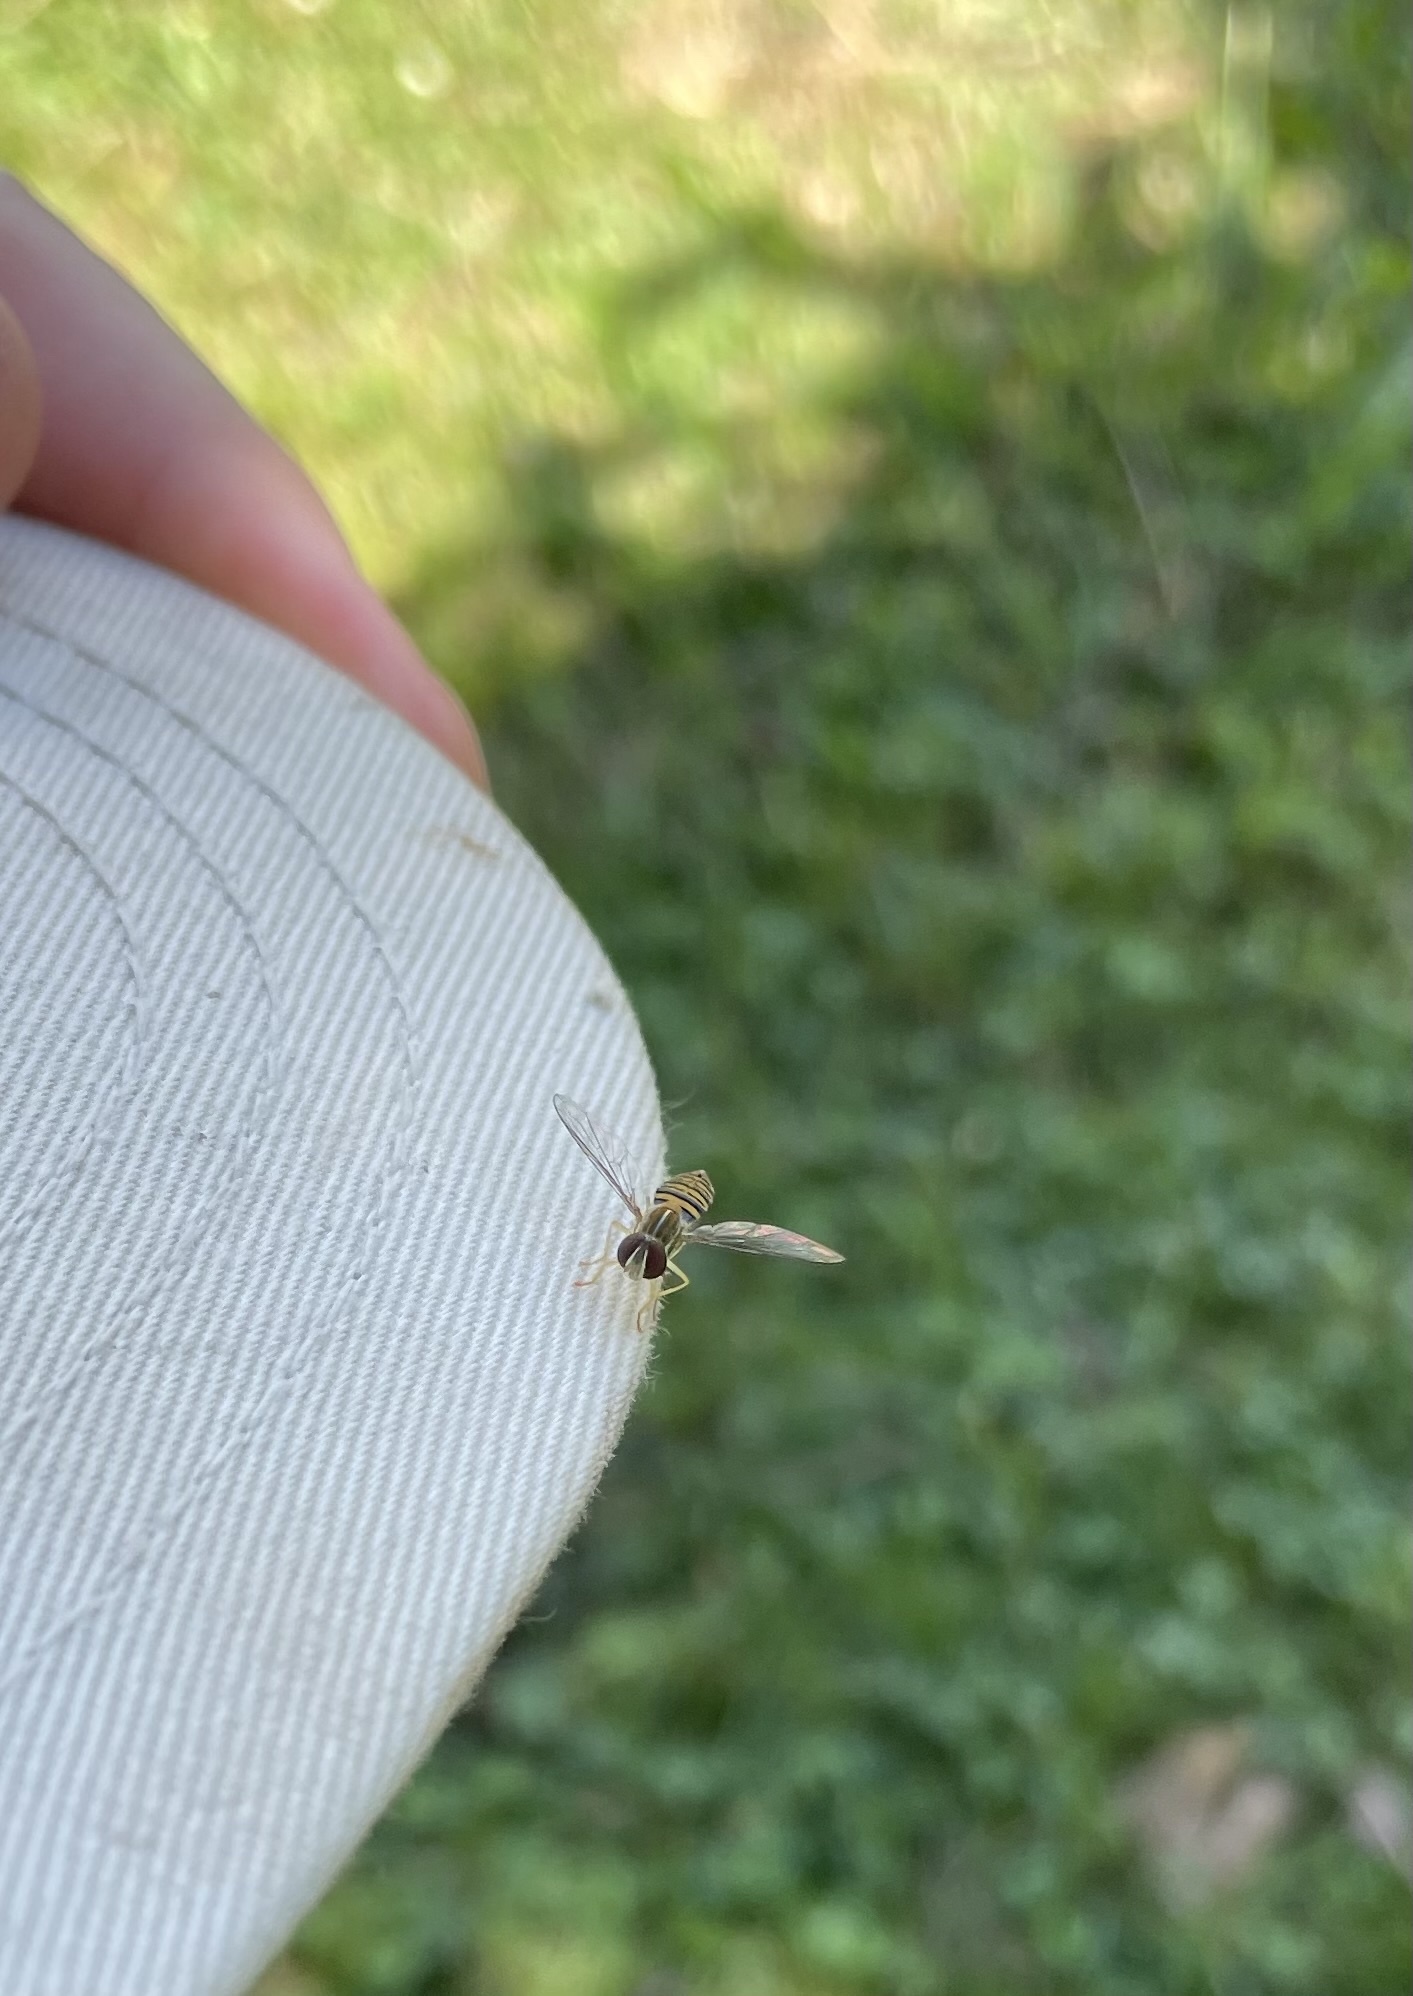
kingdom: Animalia
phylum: Arthropoda
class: Insecta
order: Diptera
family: Syrphidae
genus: Toxomerus
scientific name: Toxomerus politus
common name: Maize calligrapher
